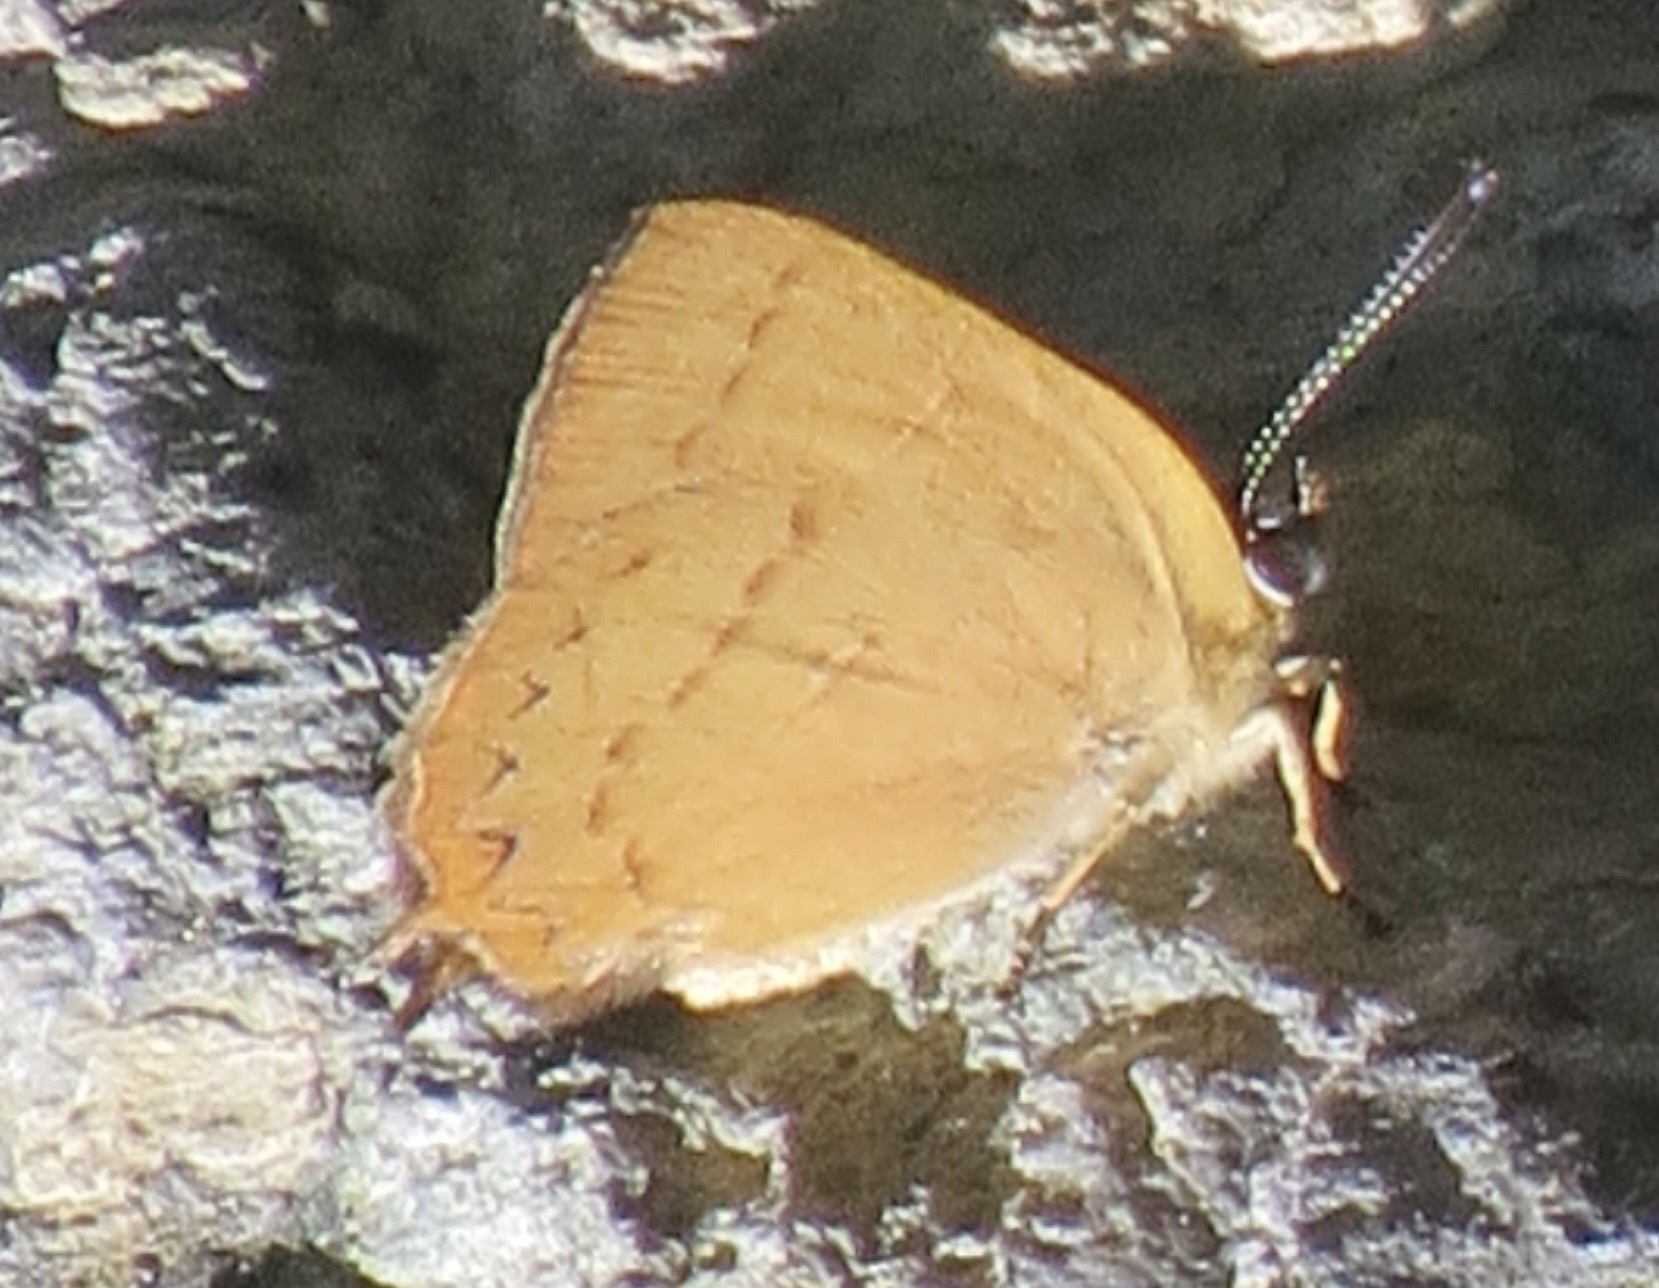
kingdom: Animalia
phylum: Arthropoda
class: Insecta
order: Lepidoptera
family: Lycaenidae
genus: Habrodais
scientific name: Habrodais grunus
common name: Golden hairstreak
